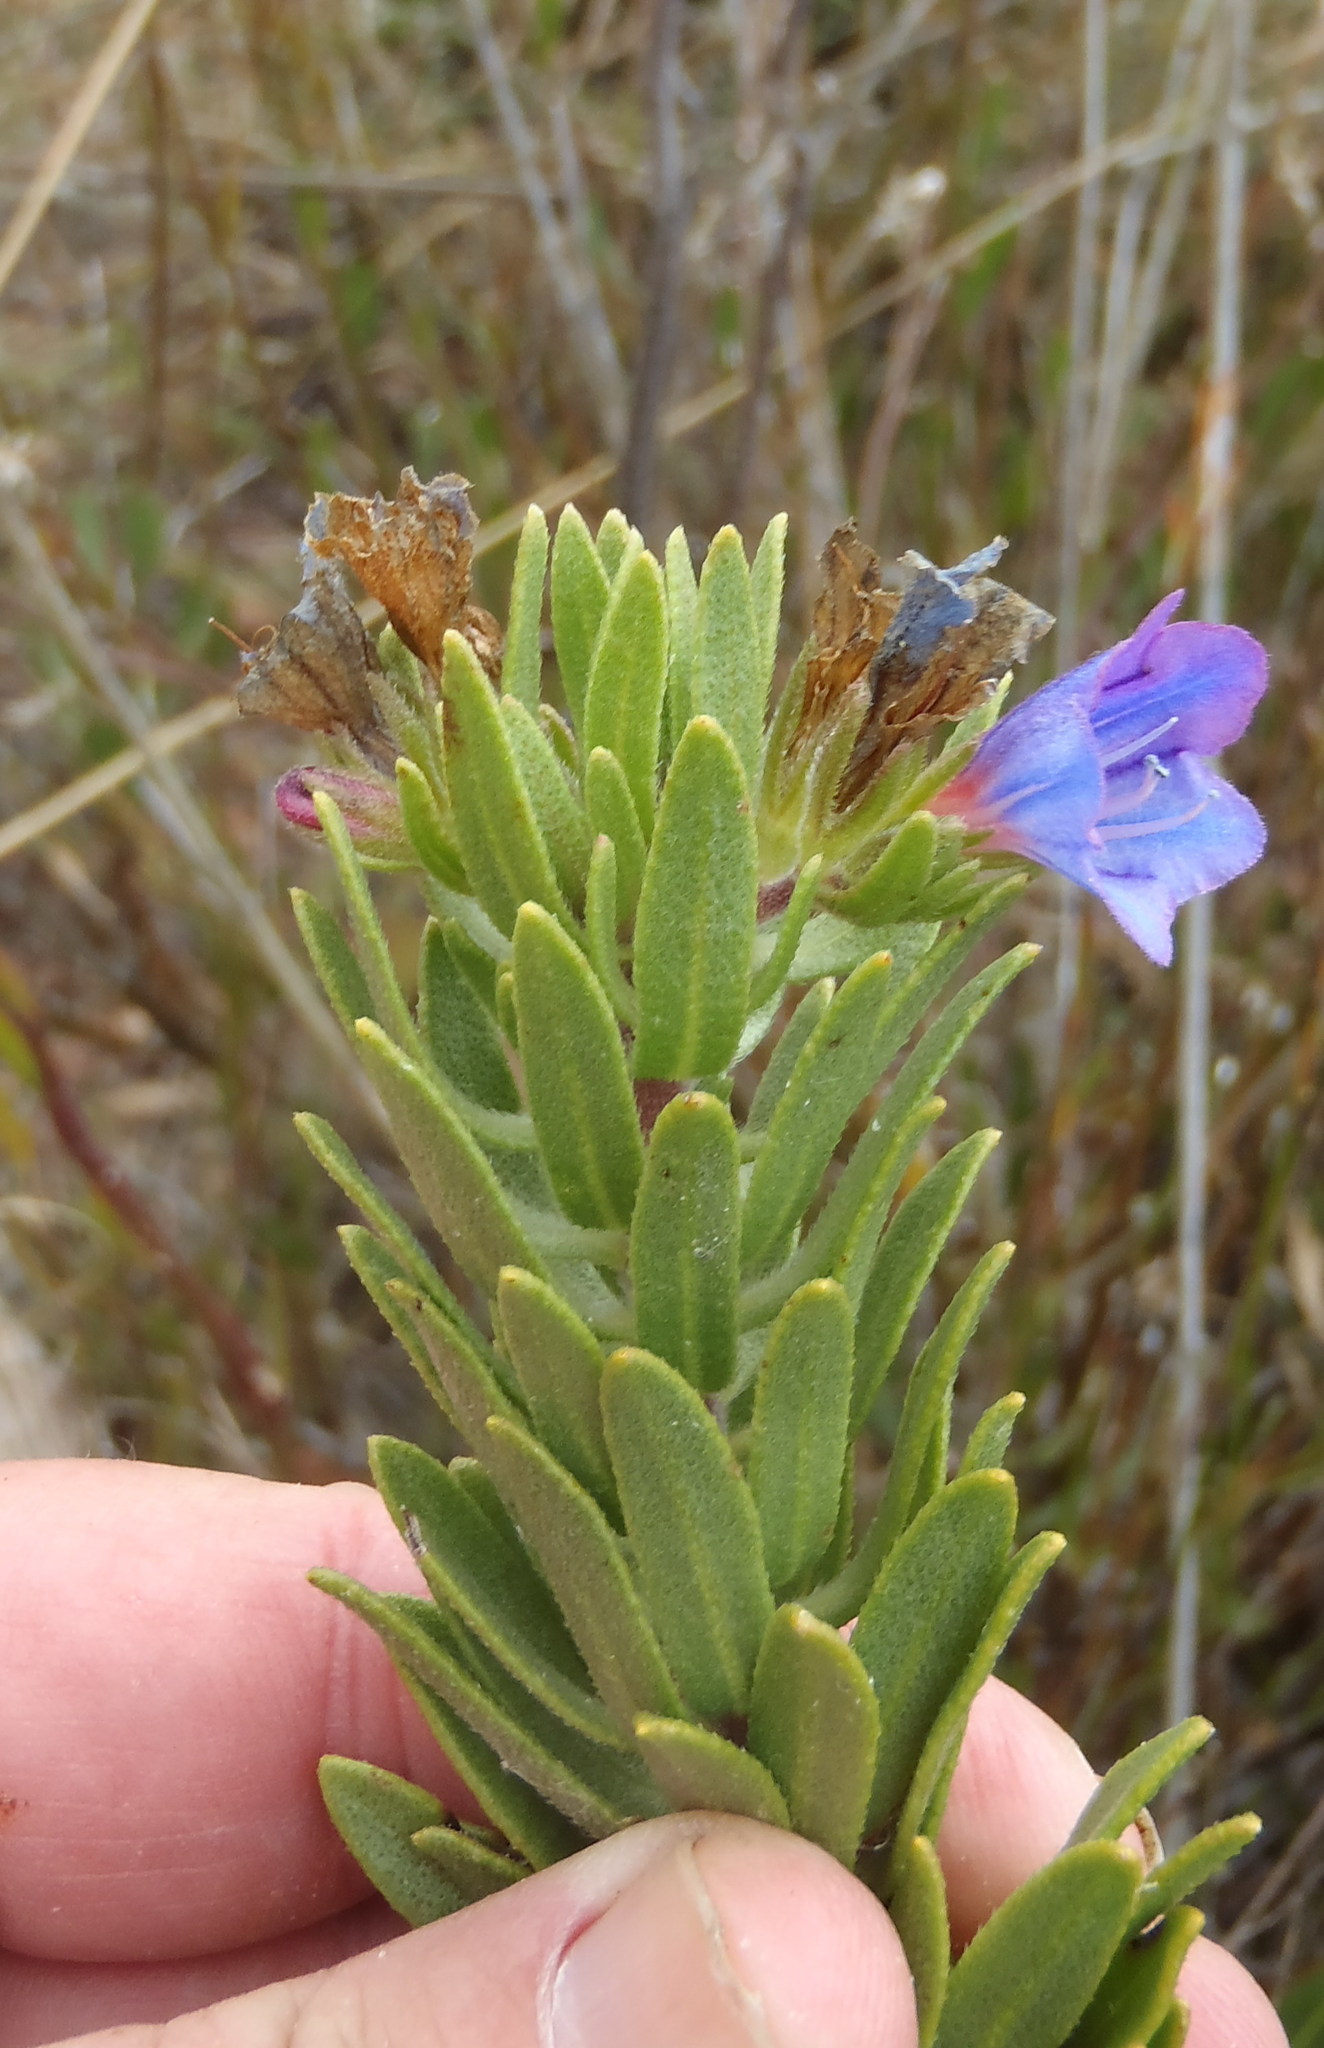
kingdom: Plantae
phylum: Tracheophyta
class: Magnoliopsida
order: Boraginales
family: Boraginaceae
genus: Lobostemon
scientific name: Lobostemon marlothii
